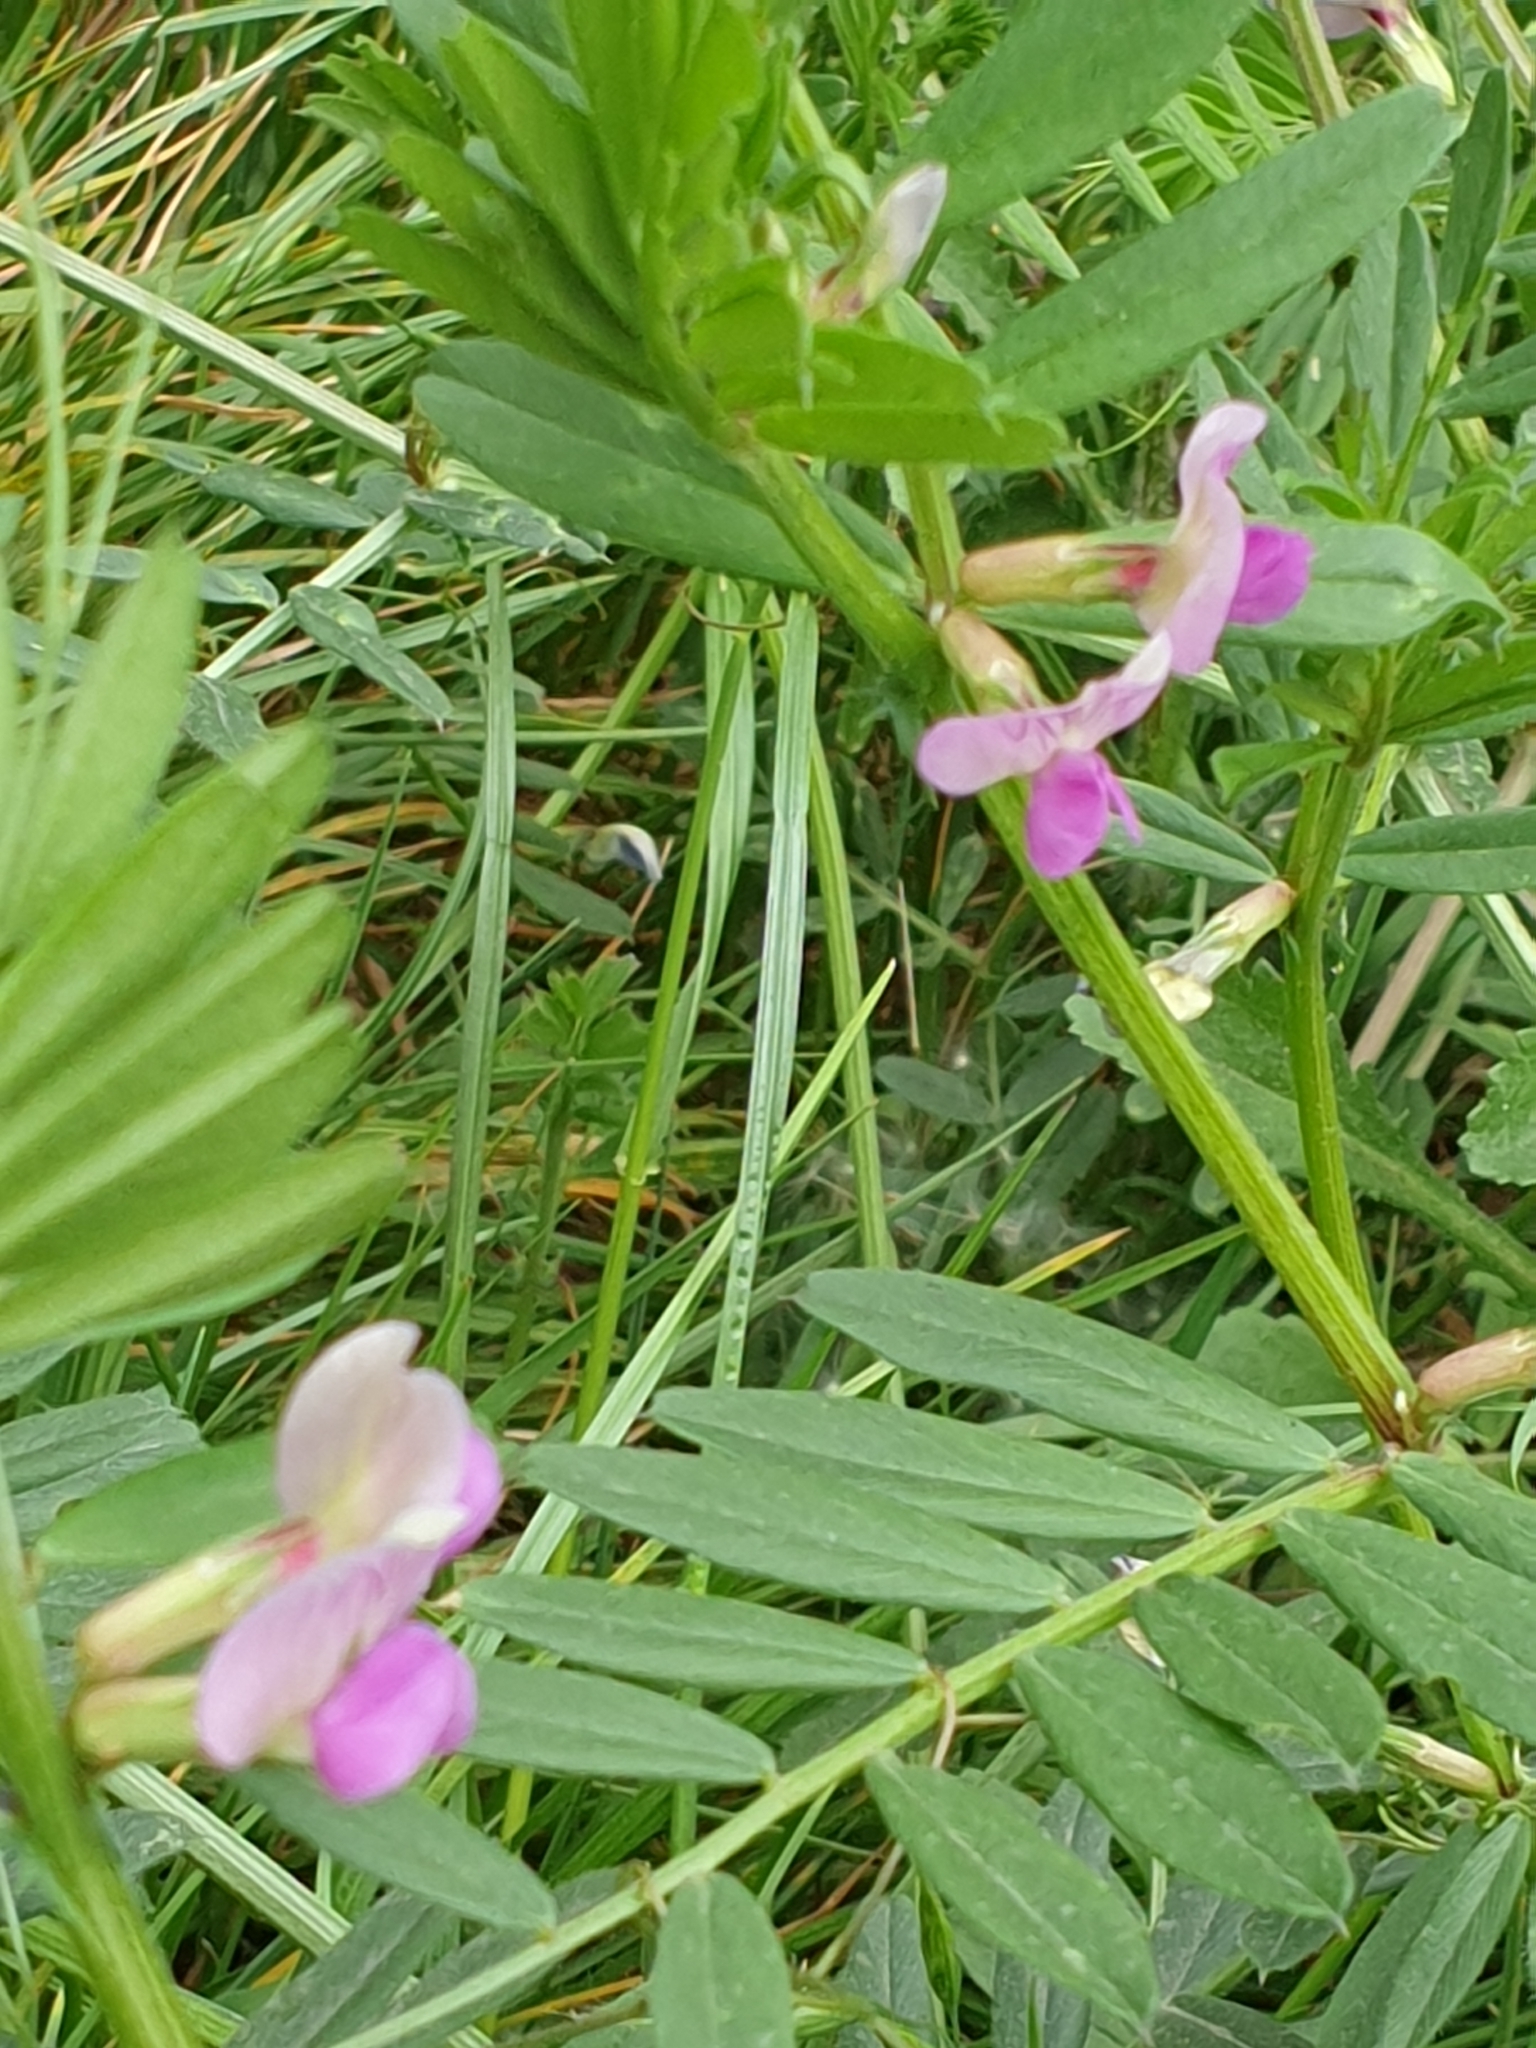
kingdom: Plantae
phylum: Tracheophyta
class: Magnoliopsida
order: Fabales
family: Fabaceae
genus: Vicia
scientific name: Vicia sativa
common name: Garden vetch
